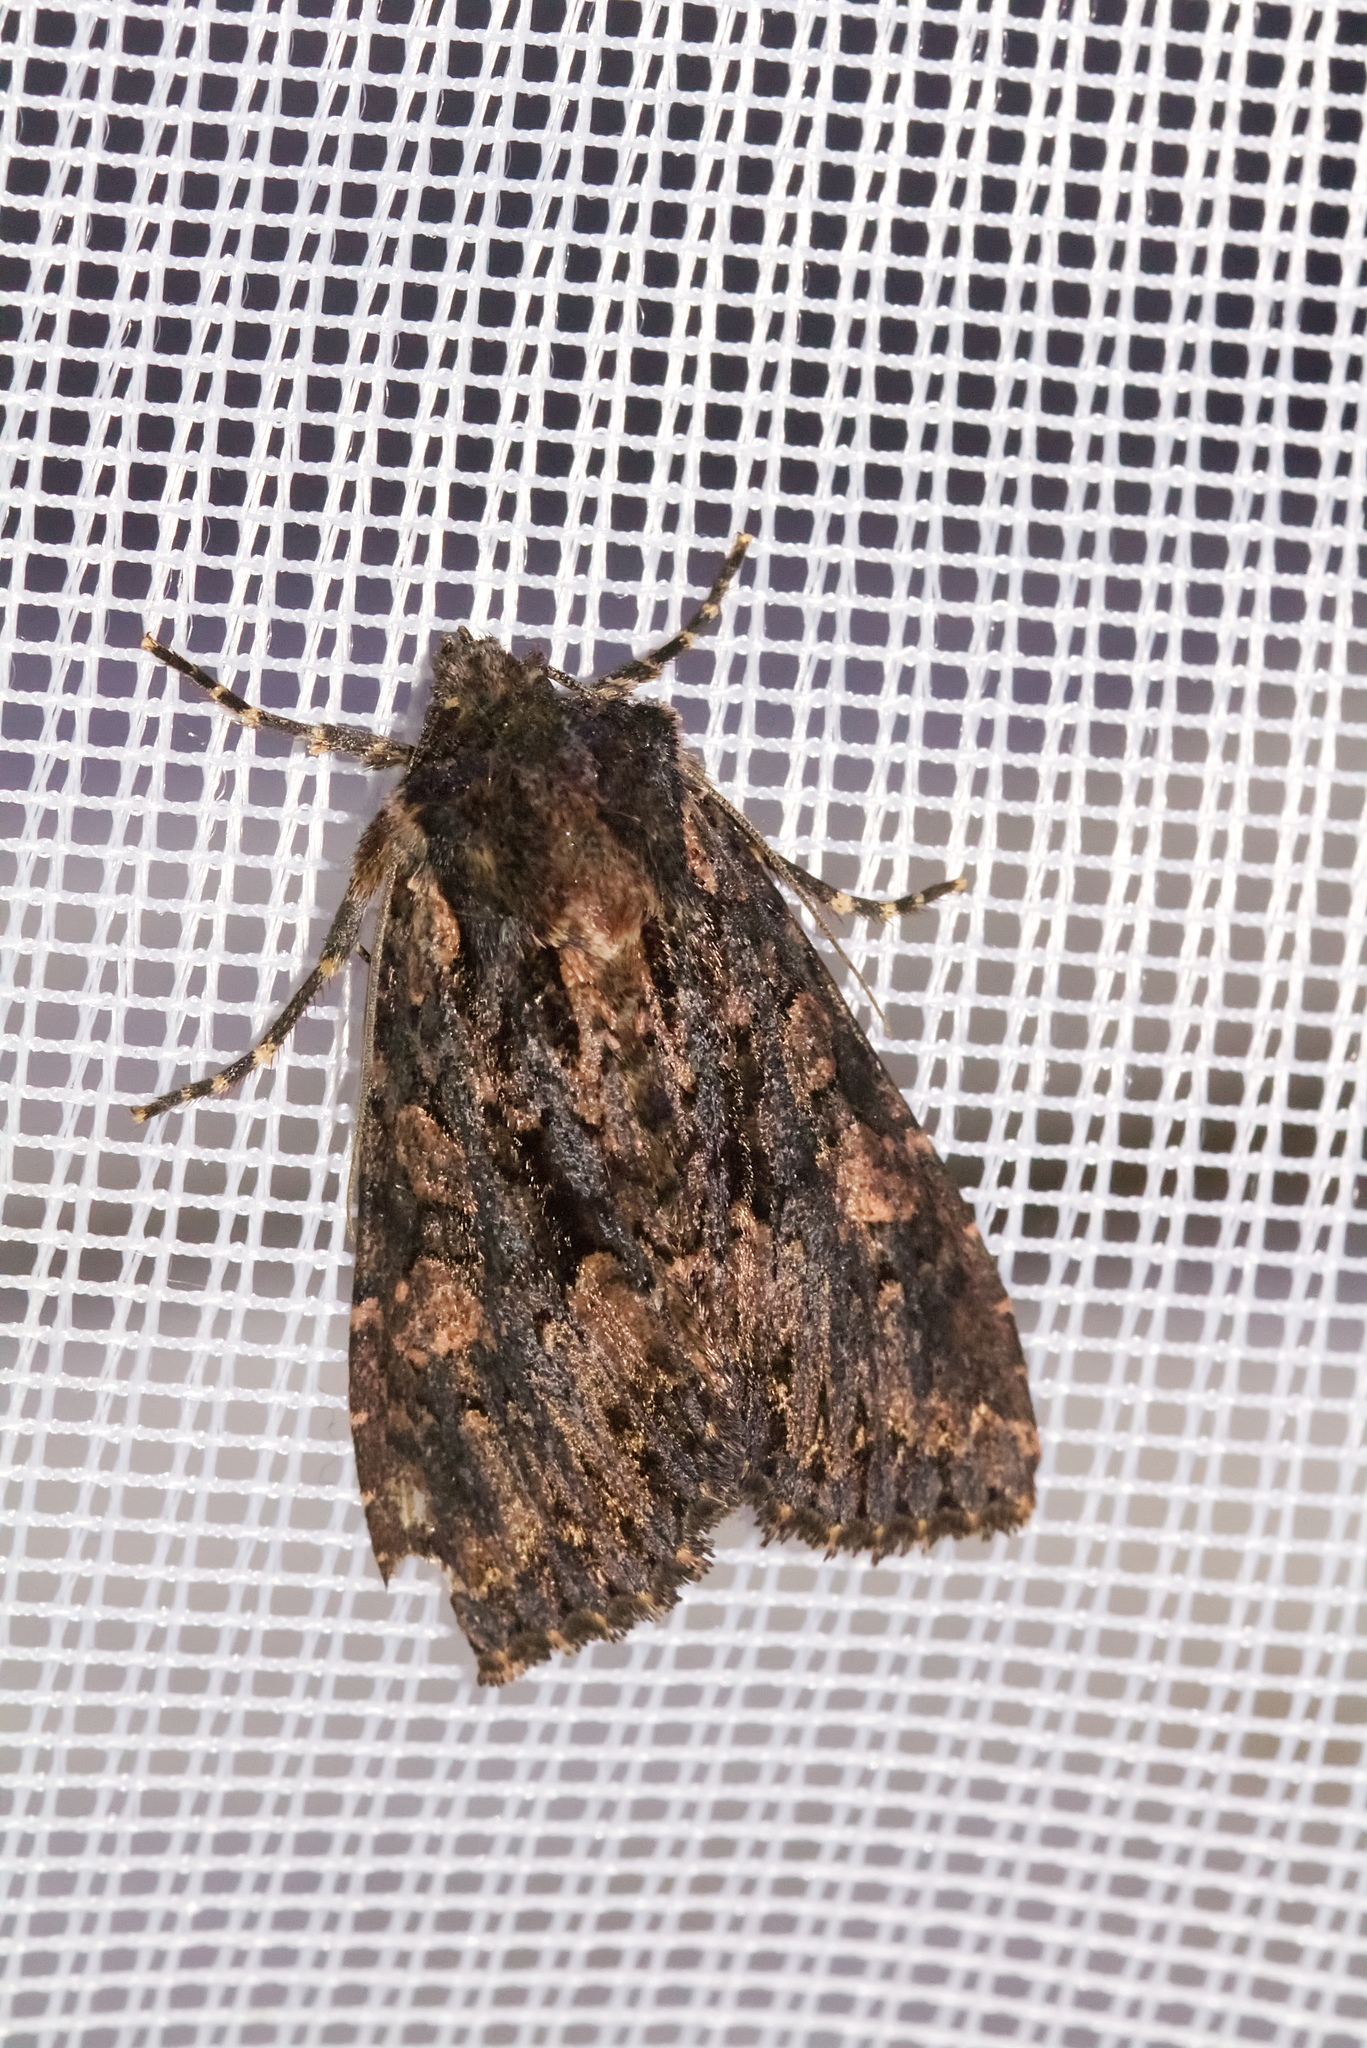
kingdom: Animalia
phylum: Arthropoda
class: Insecta
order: Lepidoptera
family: Noctuidae
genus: Mniotype
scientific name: Mniotype satura
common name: Beautiful arches
